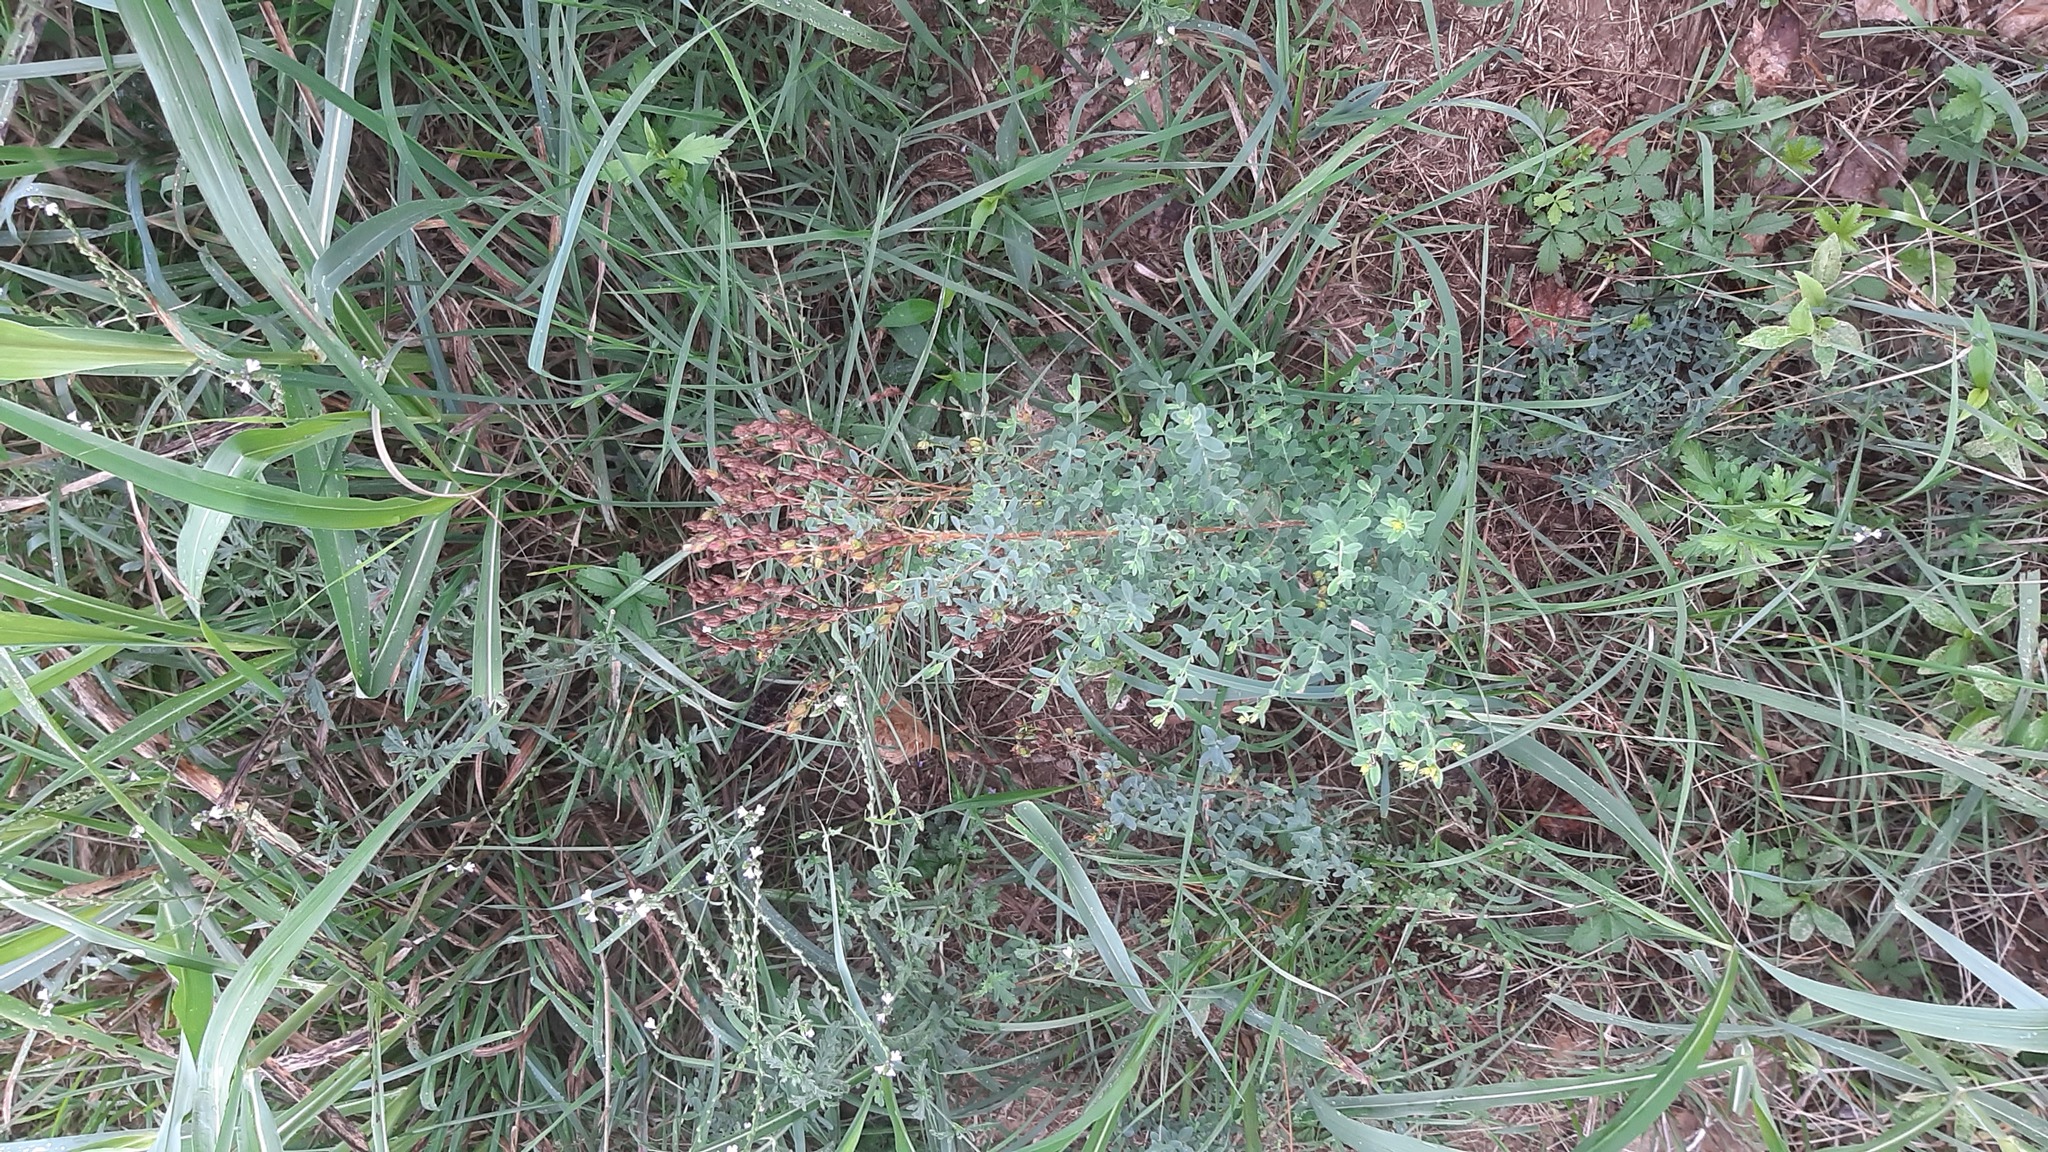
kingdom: Plantae
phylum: Tracheophyta
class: Magnoliopsida
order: Lamiales
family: Verbenaceae
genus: Verbena
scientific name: Verbena officinalis
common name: Vervain
